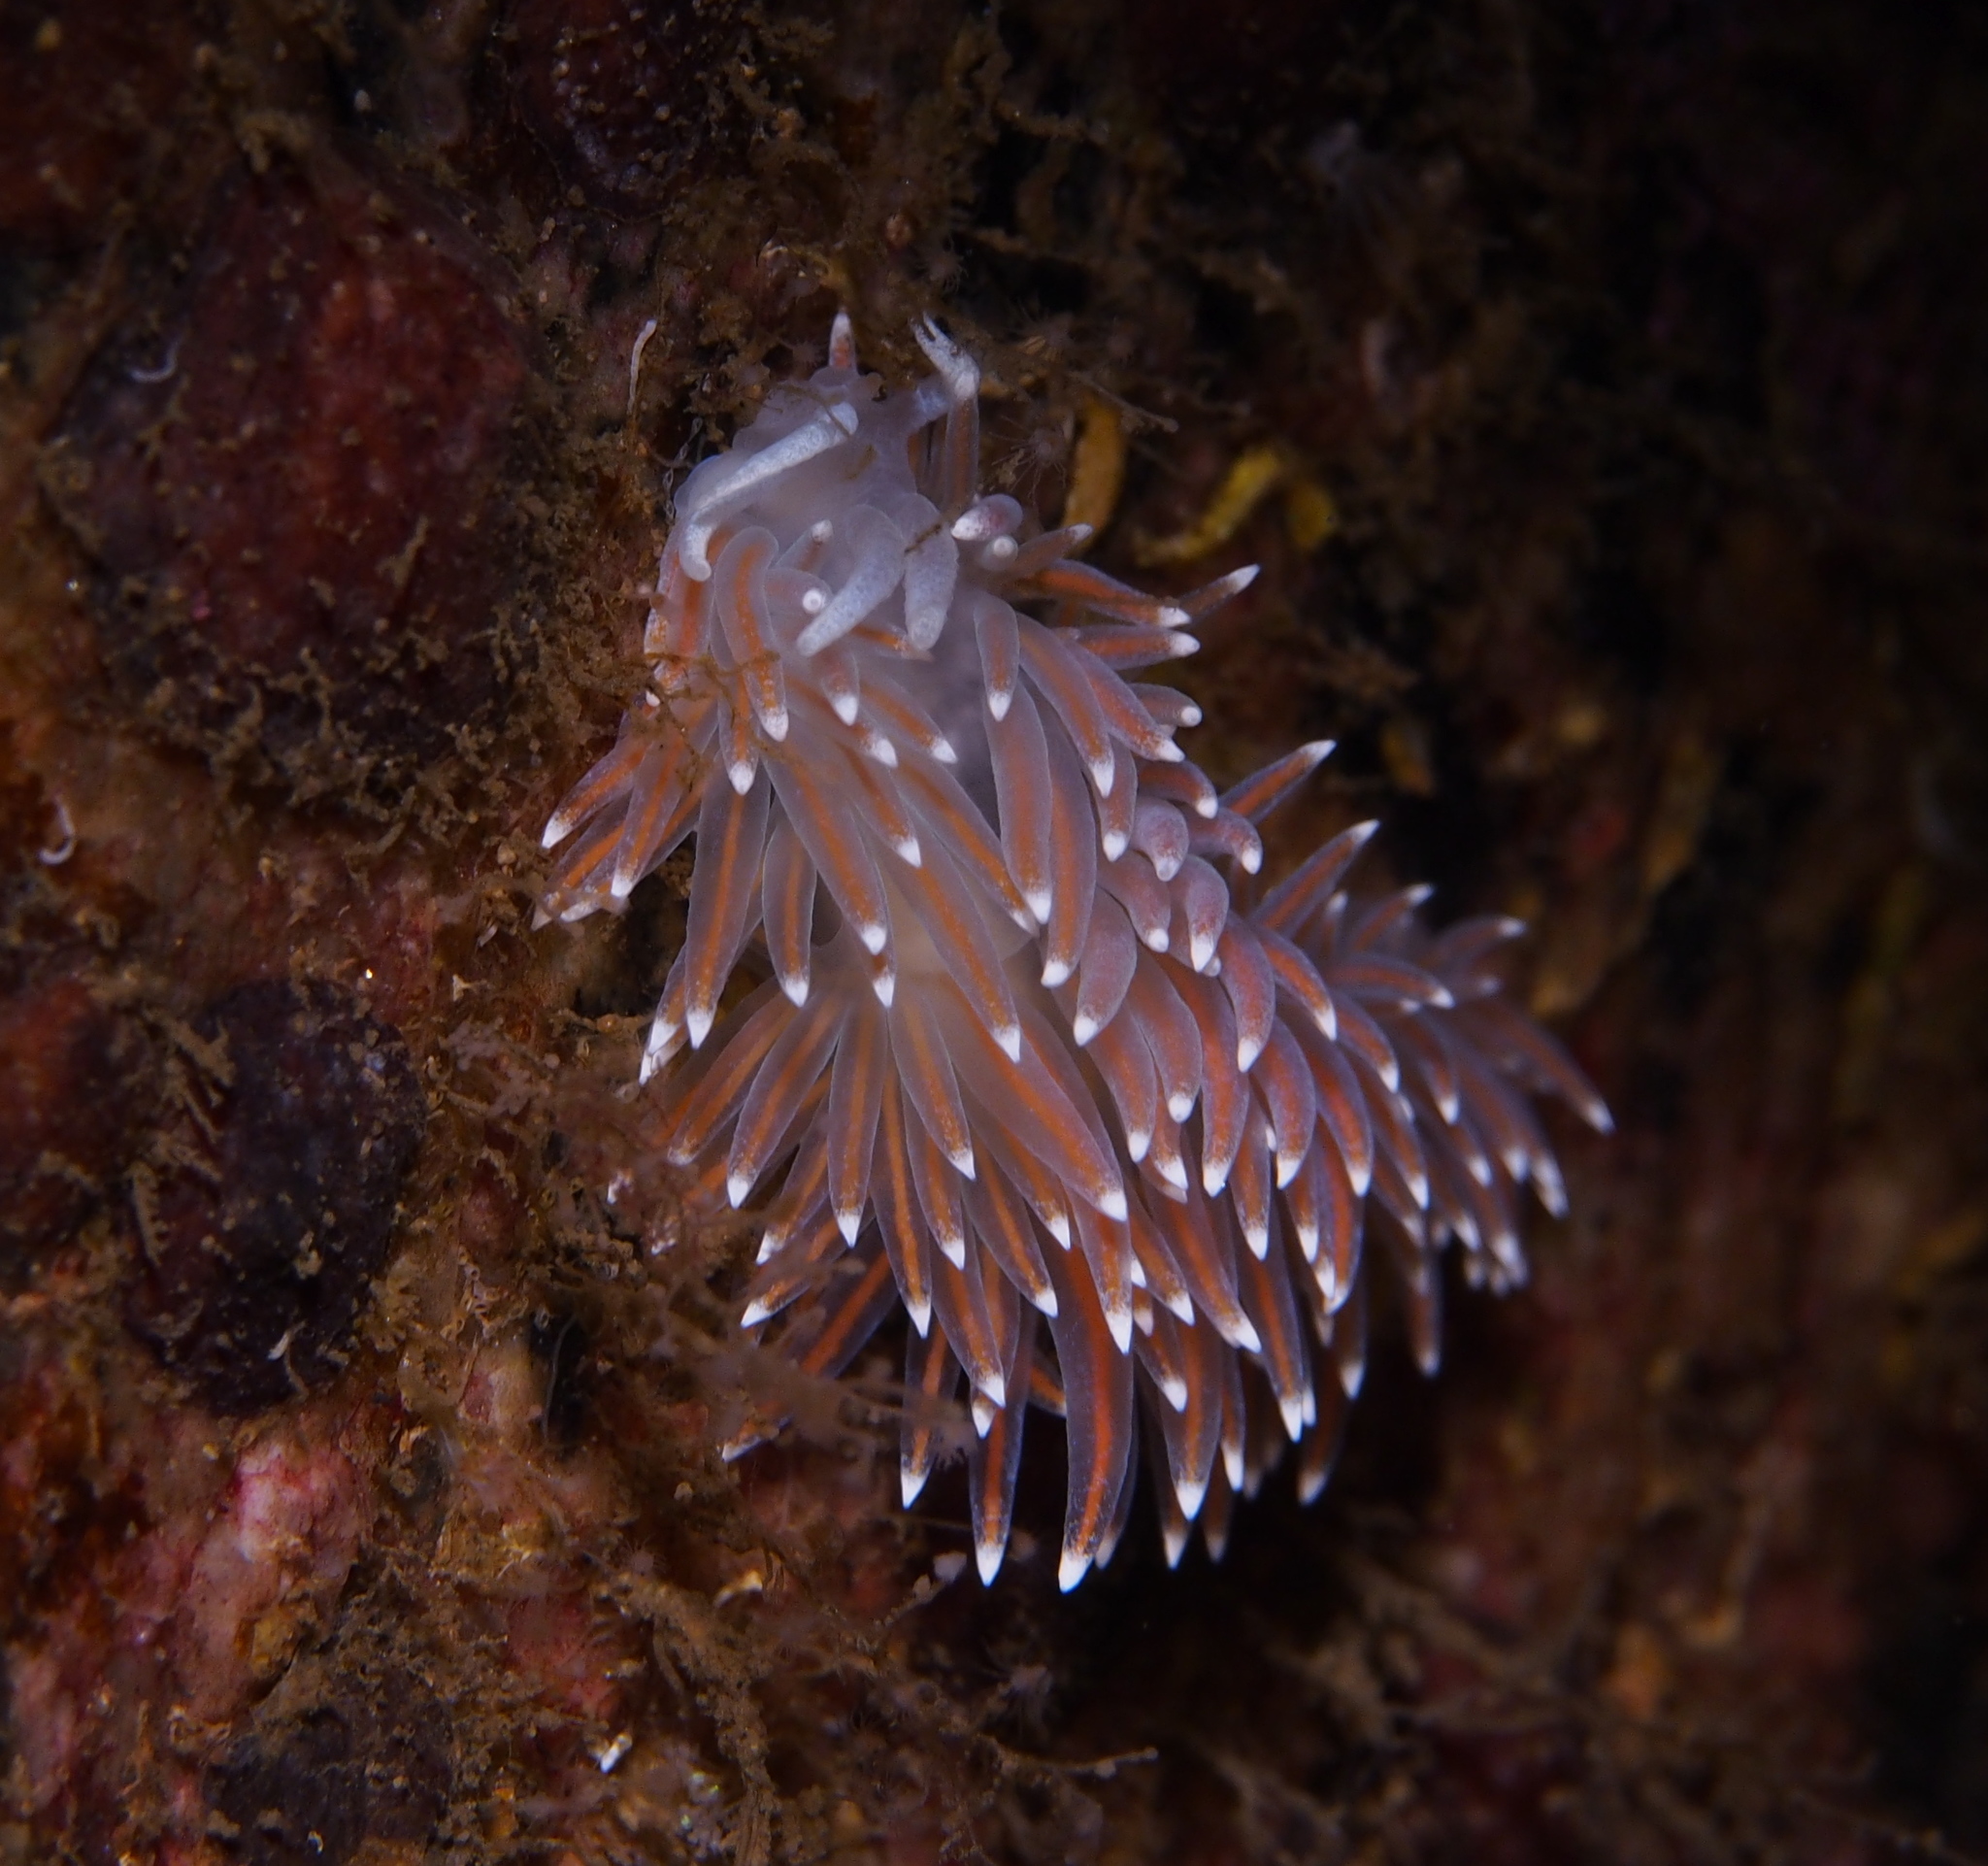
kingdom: Animalia
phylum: Mollusca
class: Gastropoda
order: Nudibranchia
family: Coryphellidae
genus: Coryphella
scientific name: Coryphella browni
